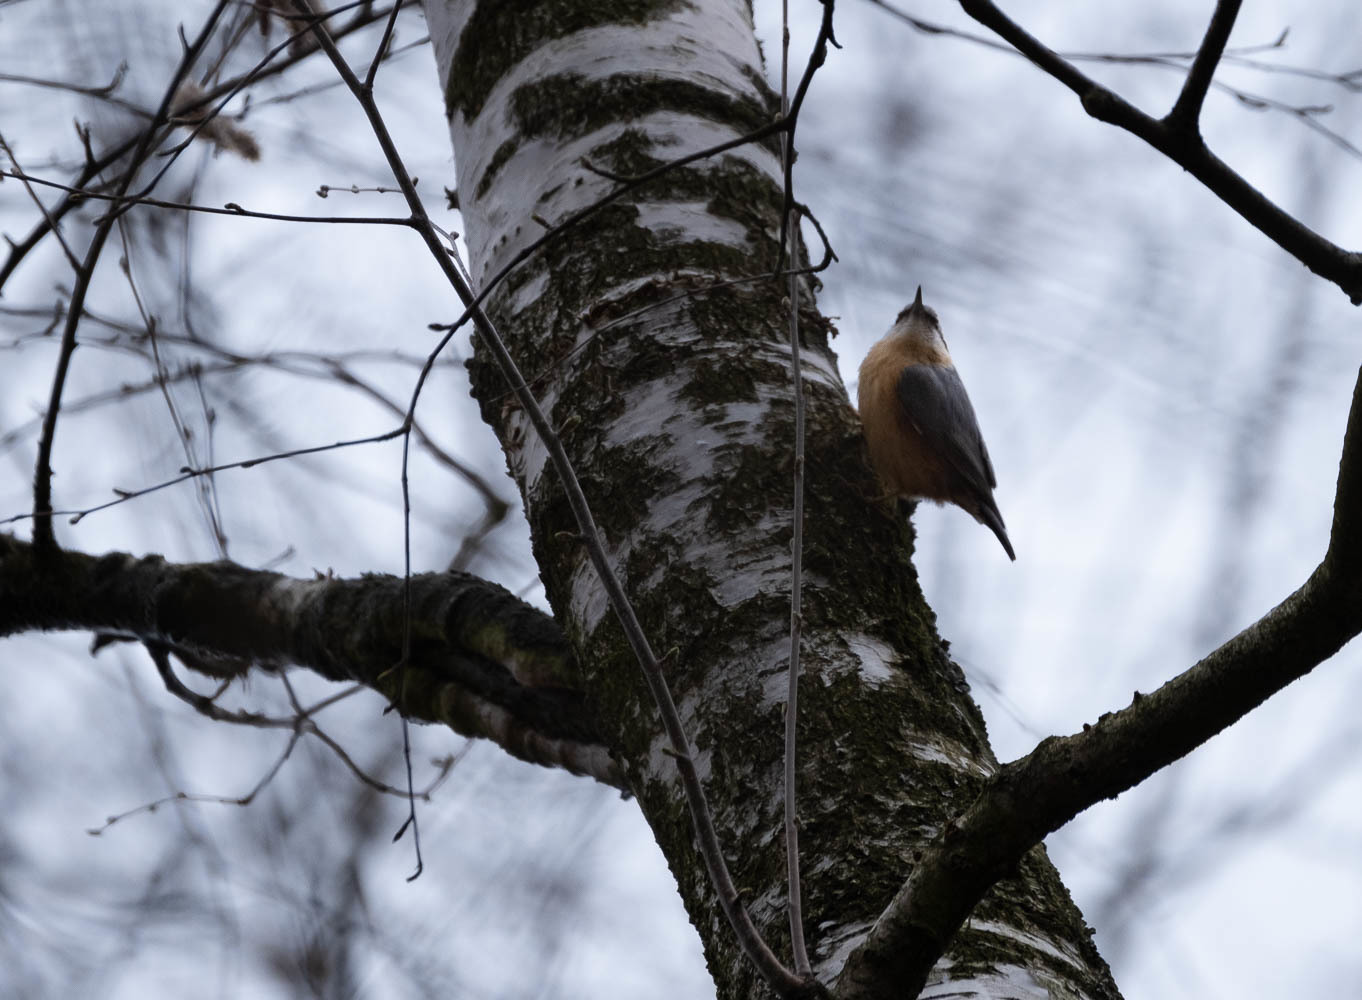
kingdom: Animalia
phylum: Chordata
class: Aves
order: Passeriformes
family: Sittidae
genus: Sitta
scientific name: Sitta europaea
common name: Eurasian nuthatch
